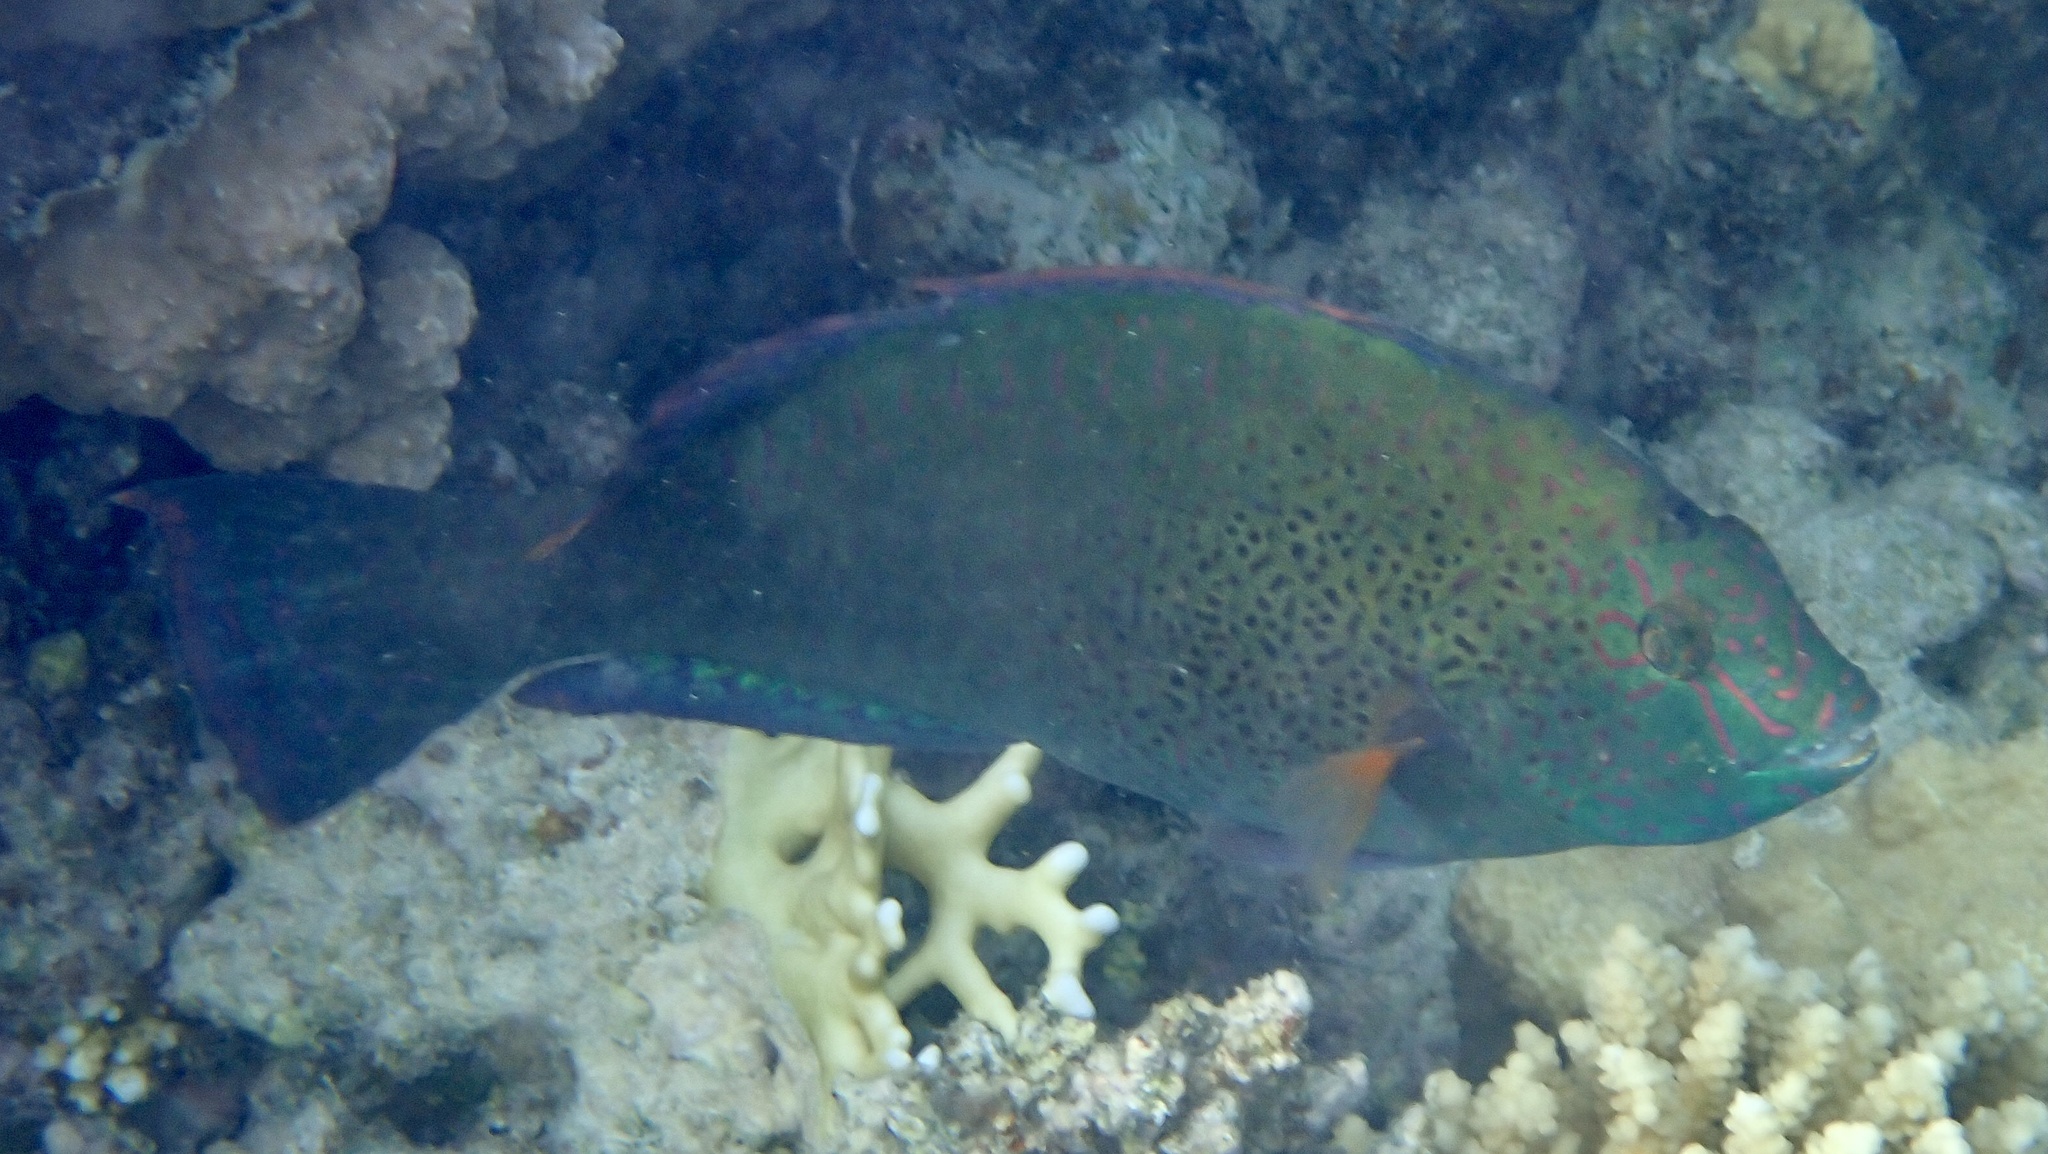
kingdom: Animalia
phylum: Chordata
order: Perciformes
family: Scaridae
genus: Calotomus
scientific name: Calotomus viridescens
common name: Dotted parrotfish
